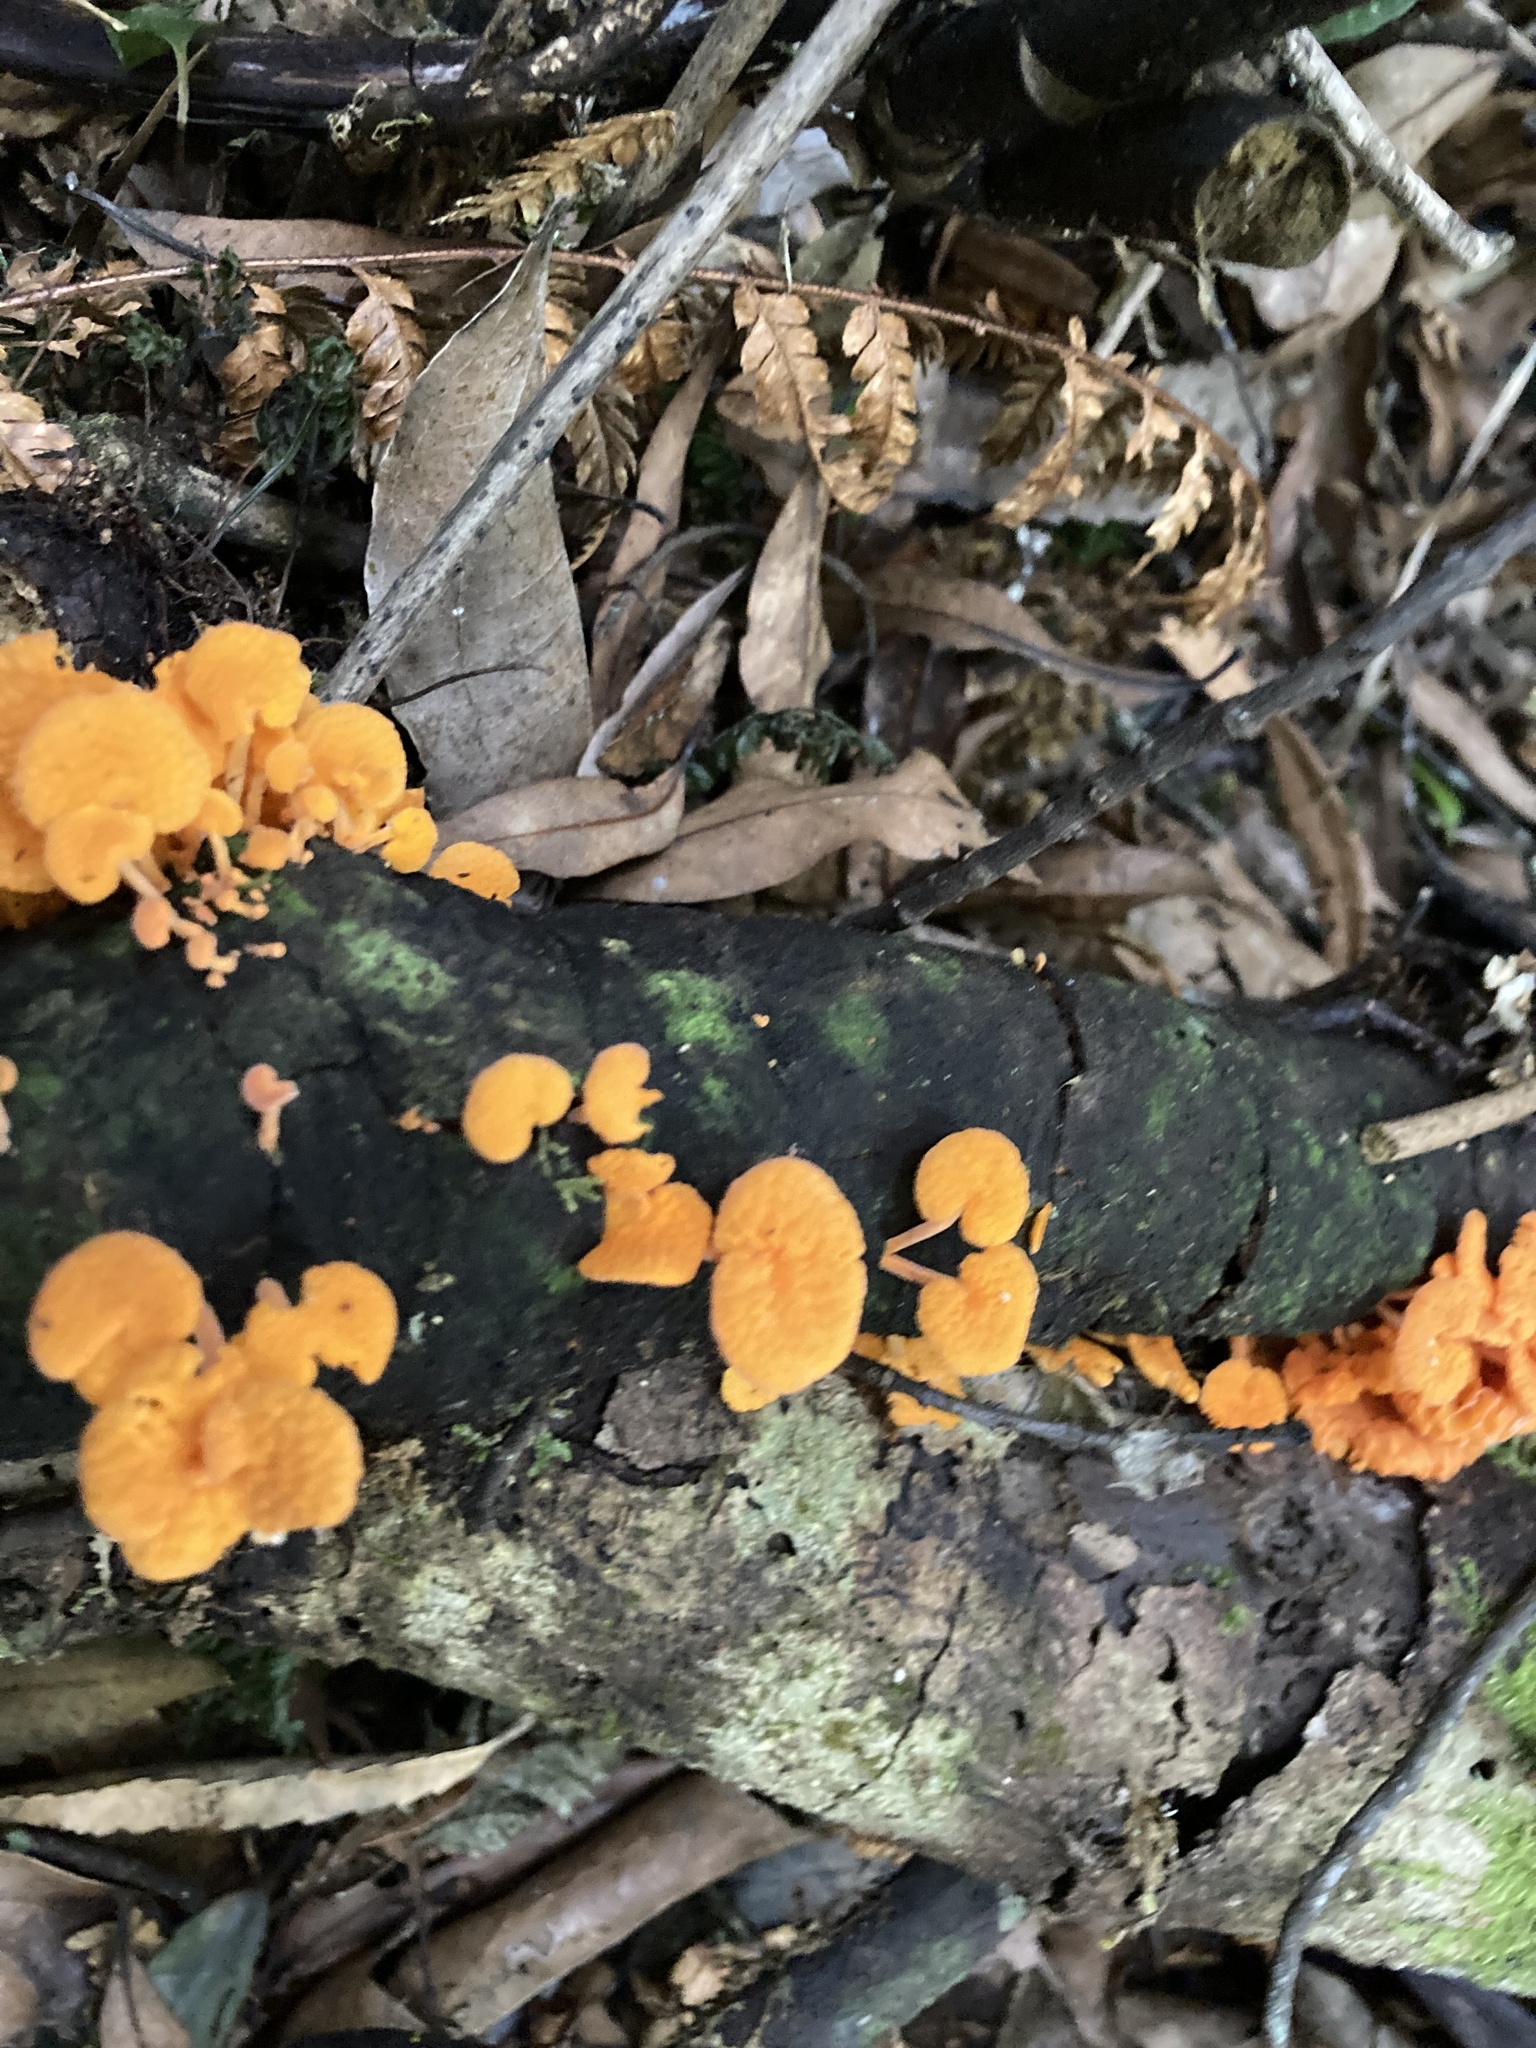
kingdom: Fungi
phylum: Basidiomycota
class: Agaricomycetes
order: Agaricales
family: Mycenaceae
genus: Favolaschia
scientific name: Favolaschia claudopus
